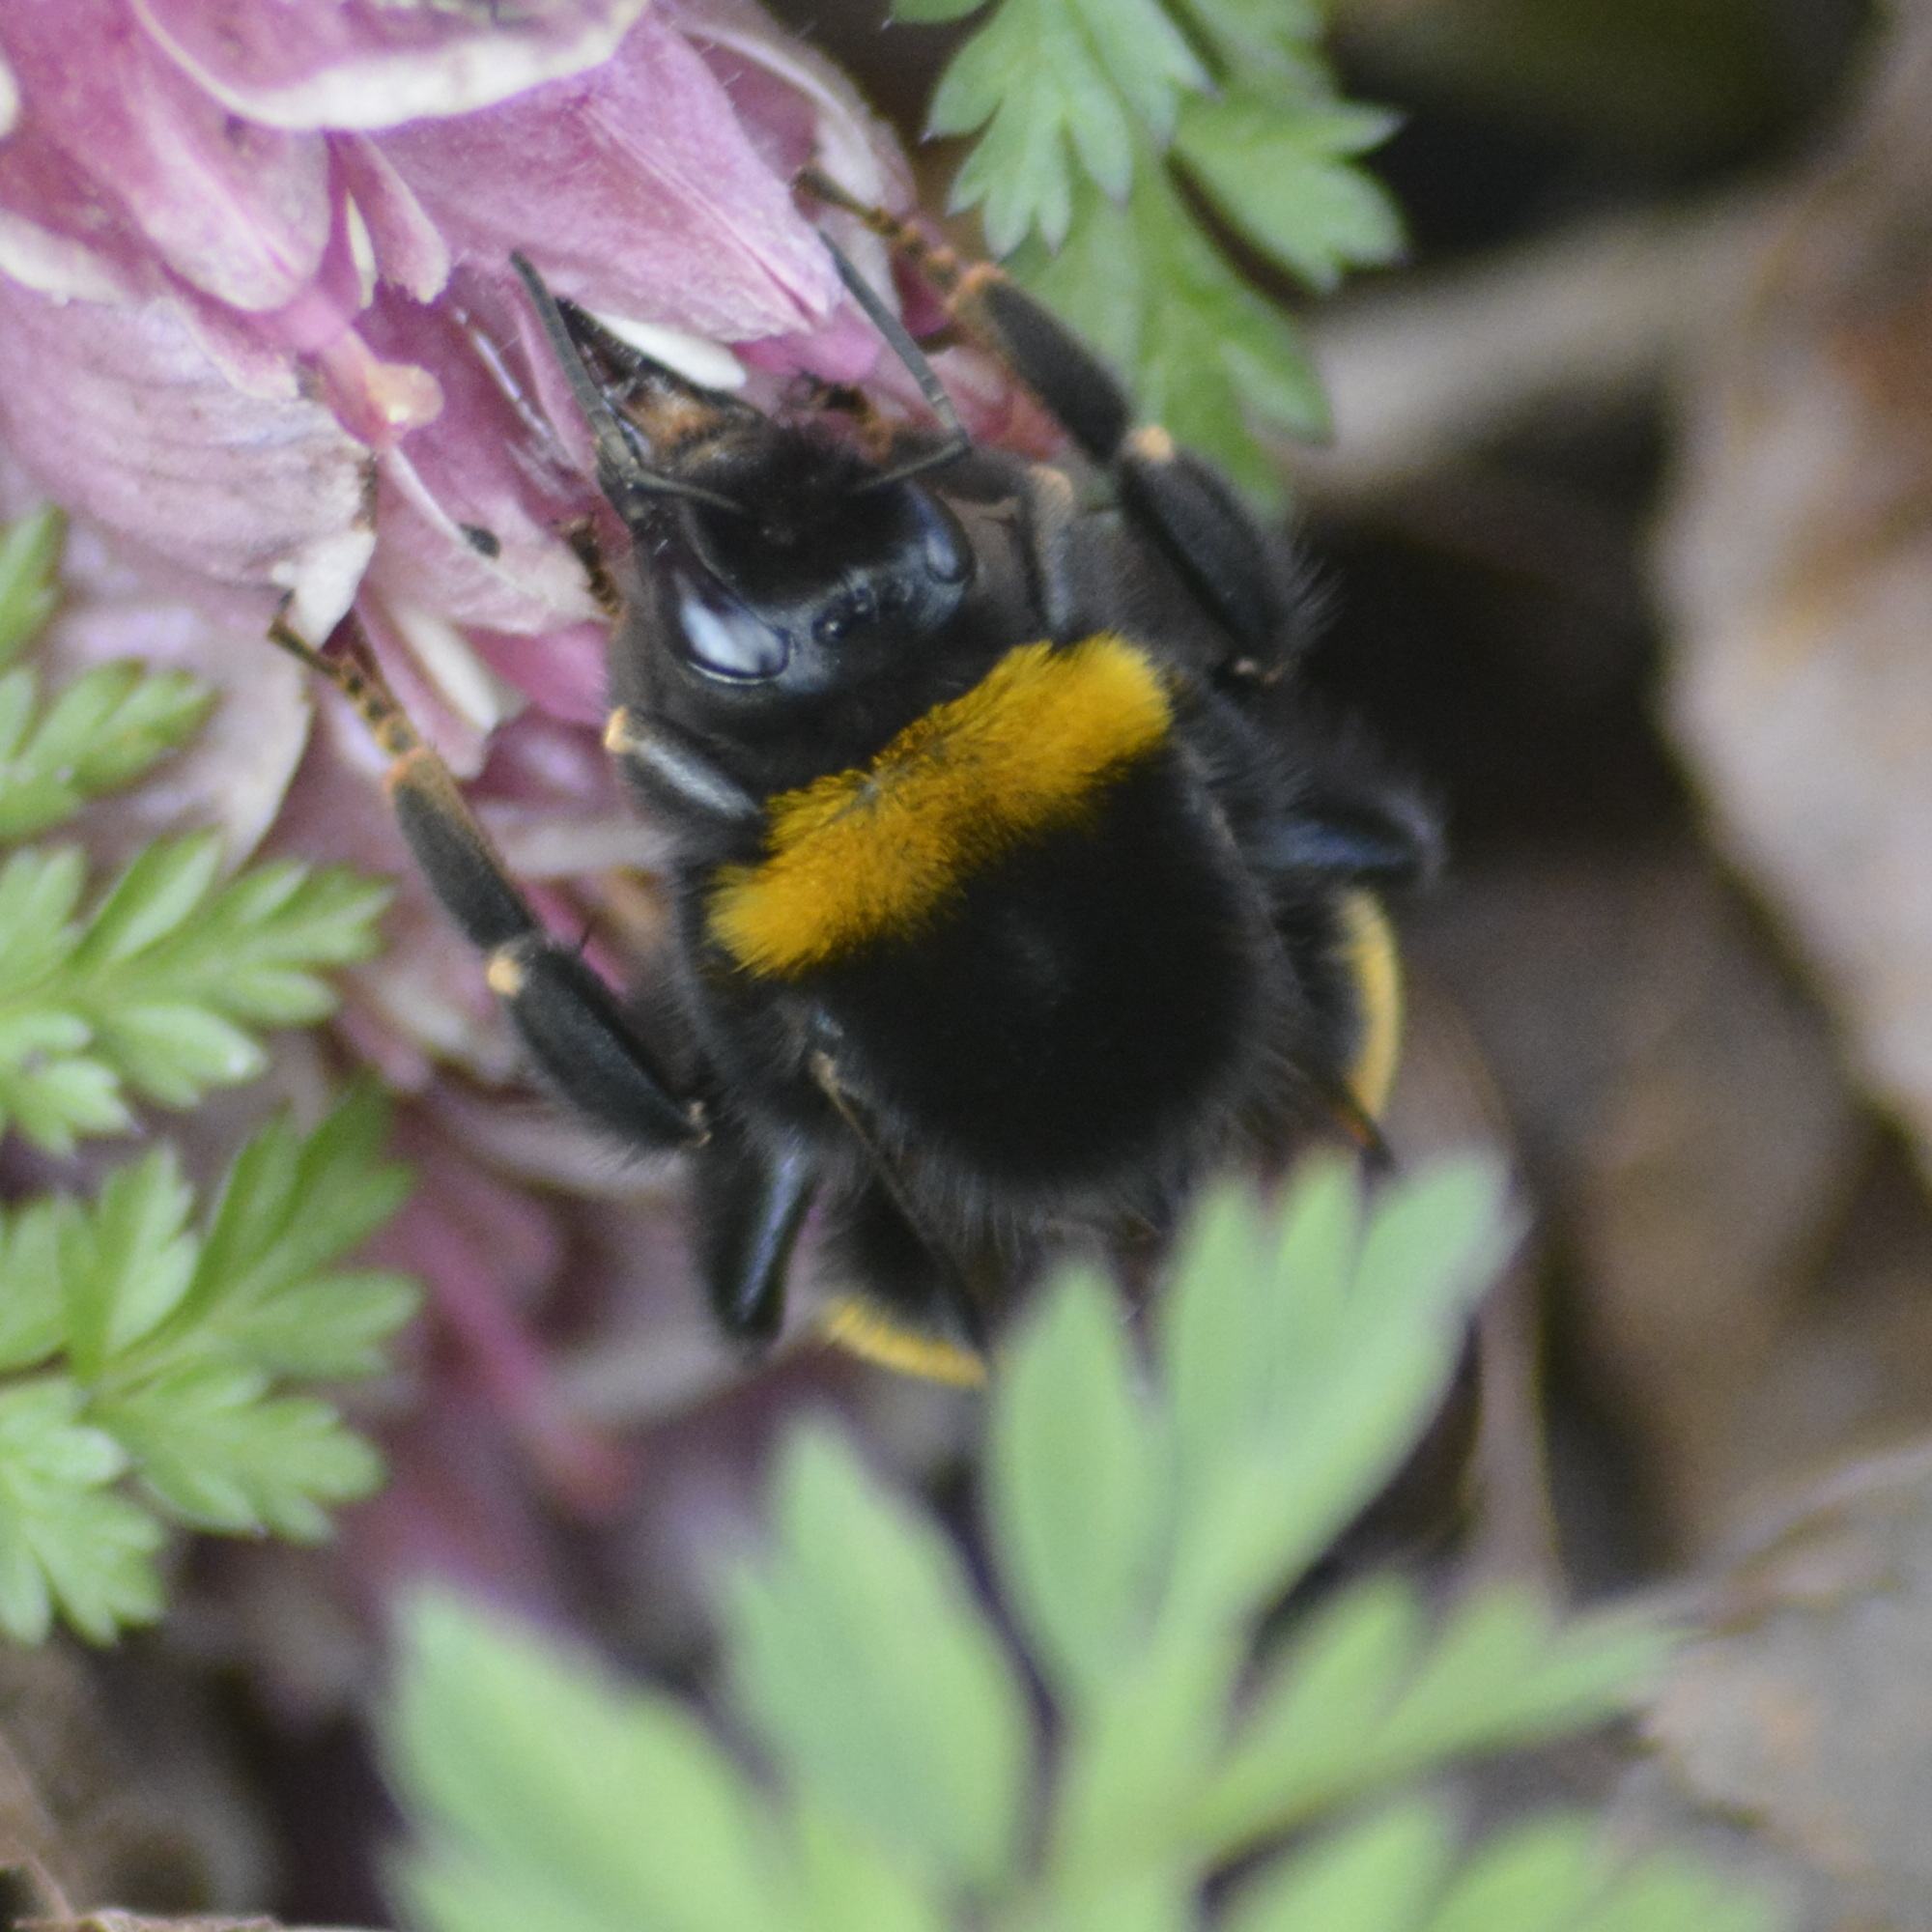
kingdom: Animalia
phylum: Arthropoda
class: Insecta
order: Hymenoptera
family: Apidae
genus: Bombus
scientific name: Bombus
